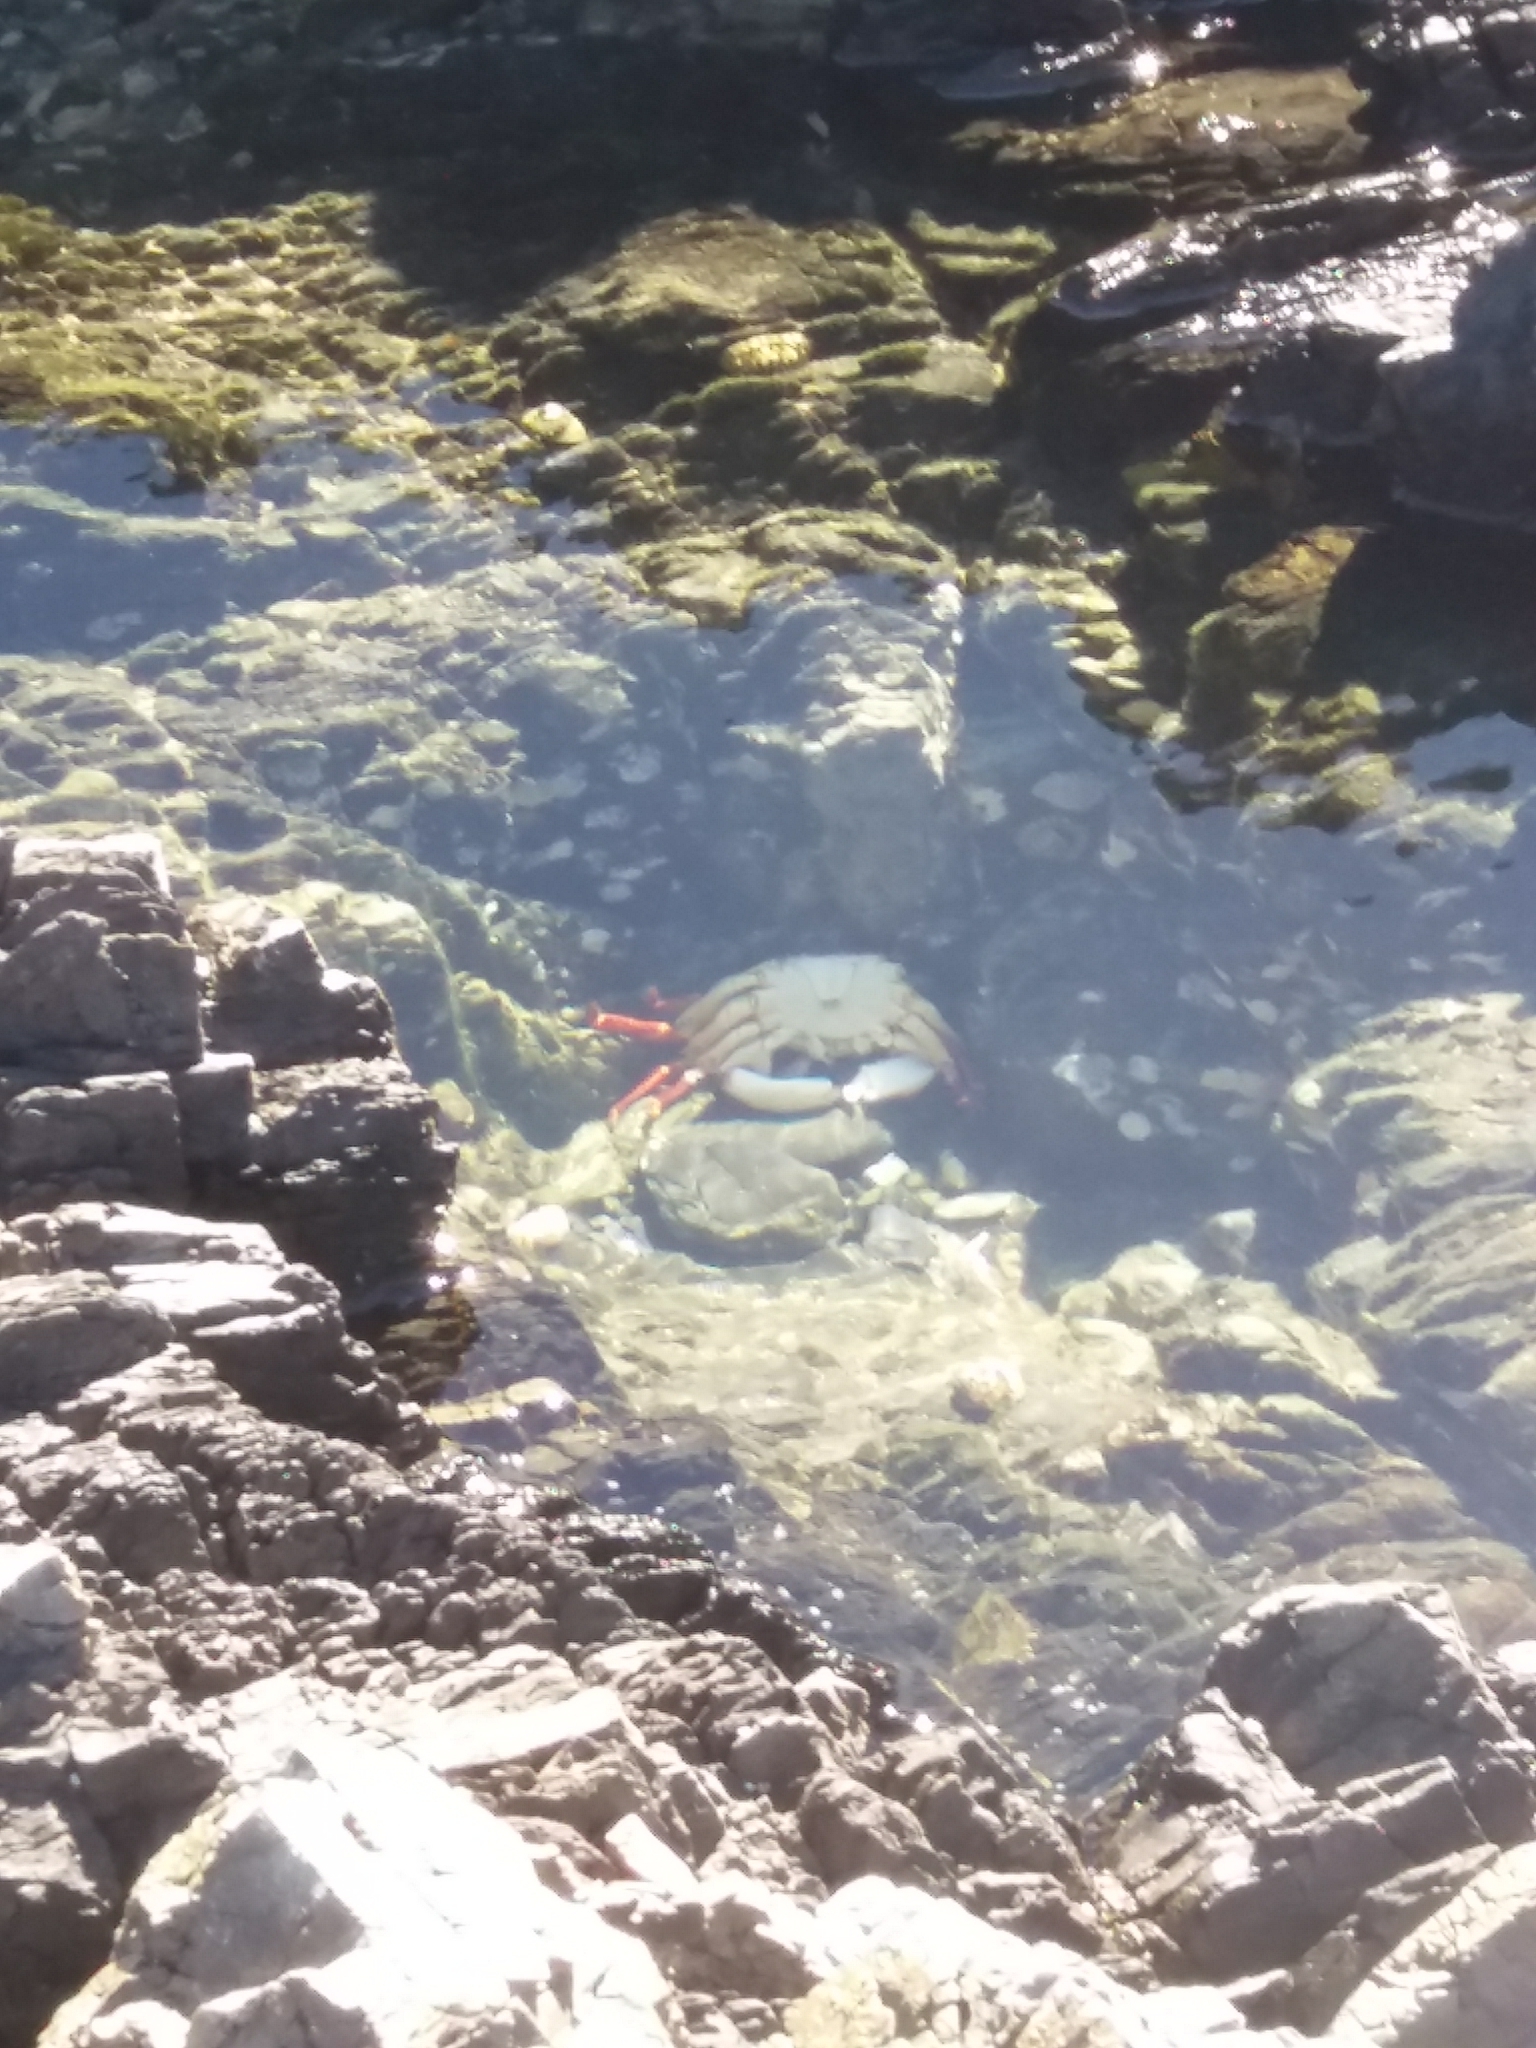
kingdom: Animalia
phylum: Arthropoda
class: Malacostraca
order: Decapoda
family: Grapsidae
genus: Leptograpsus
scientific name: Leptograpsus variegatus
